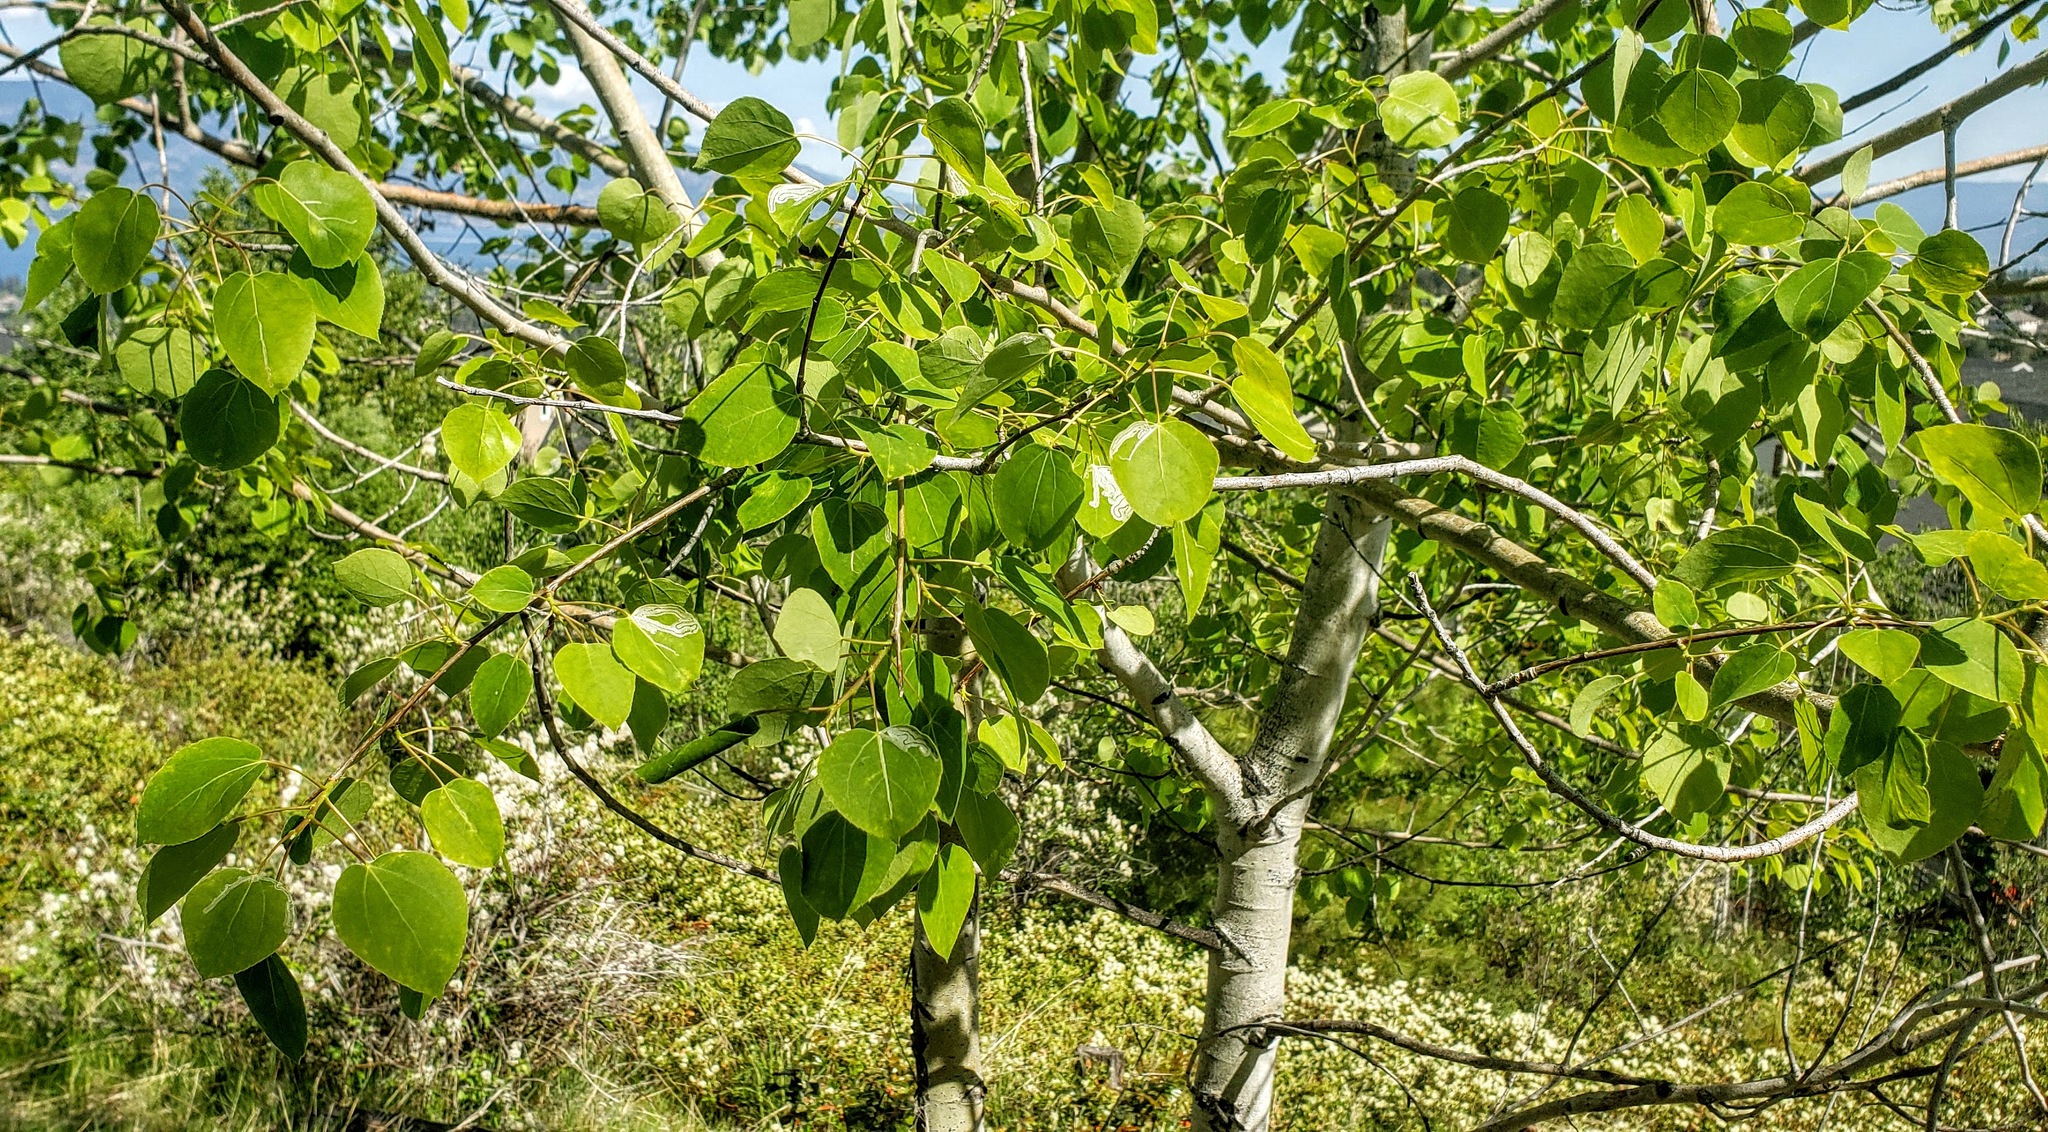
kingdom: Plantae
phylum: Tracheophyta
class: Magnoliopsida
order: Malpighiales
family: Salicaceae
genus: Populus
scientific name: Populus tremuloides
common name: Quaking aspen
